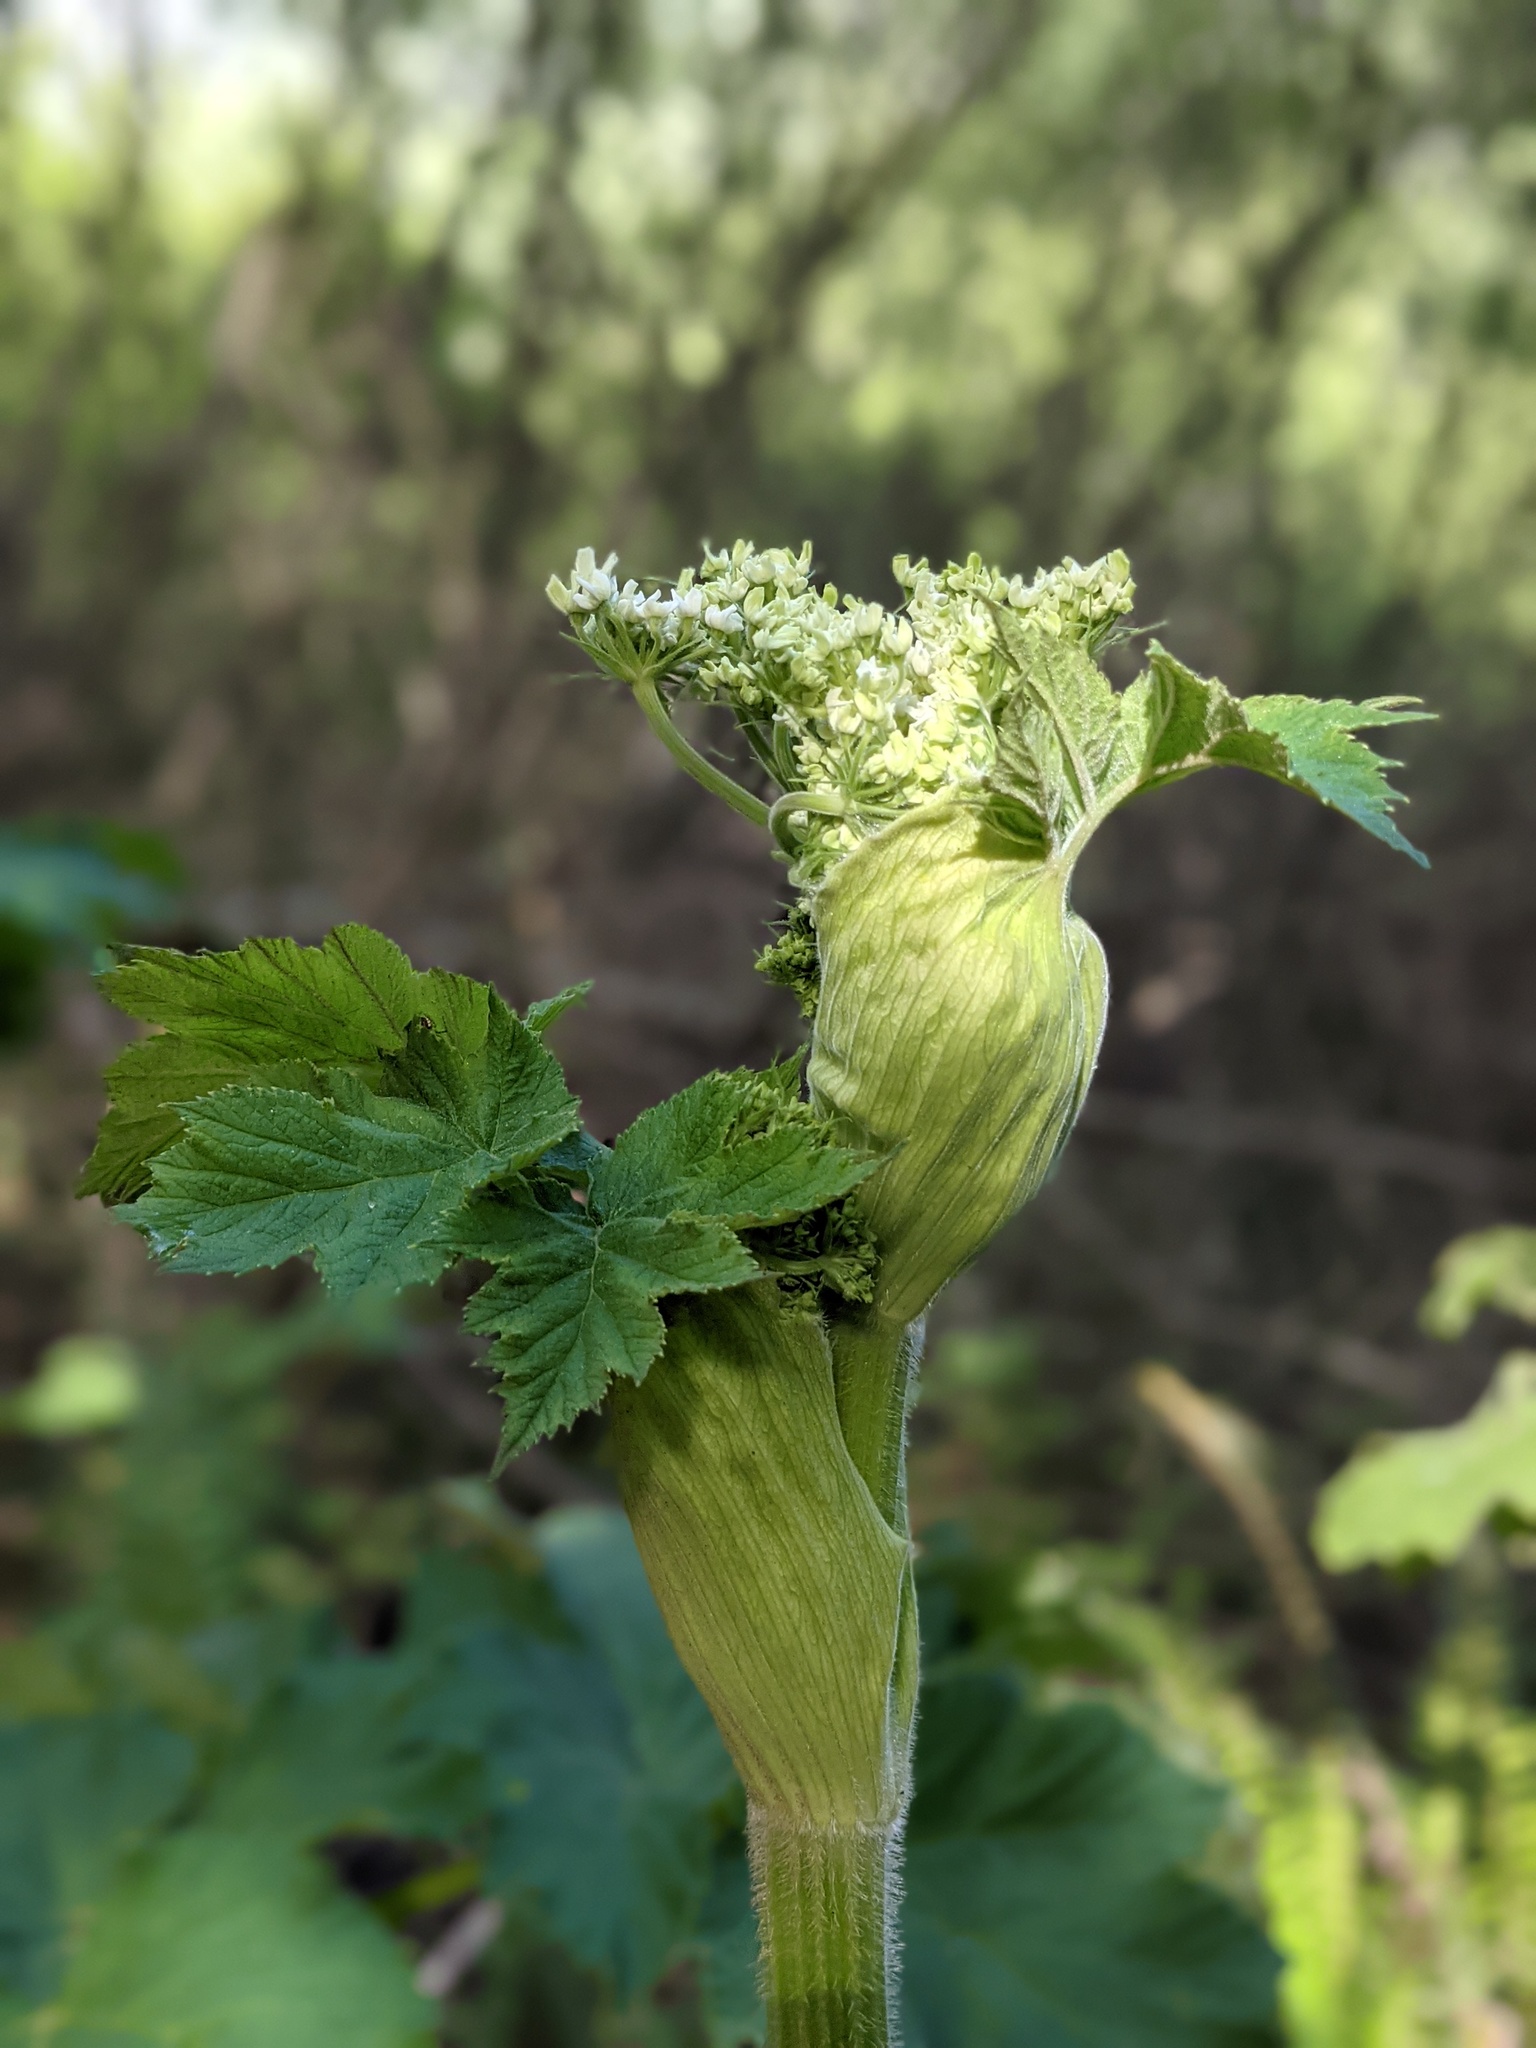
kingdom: Plantae
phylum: Tracheophyta
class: Magnoliopsida
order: Apiales
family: Apiaceae
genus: Heracleum
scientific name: Heracleum maximum
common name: American cow parsnip
